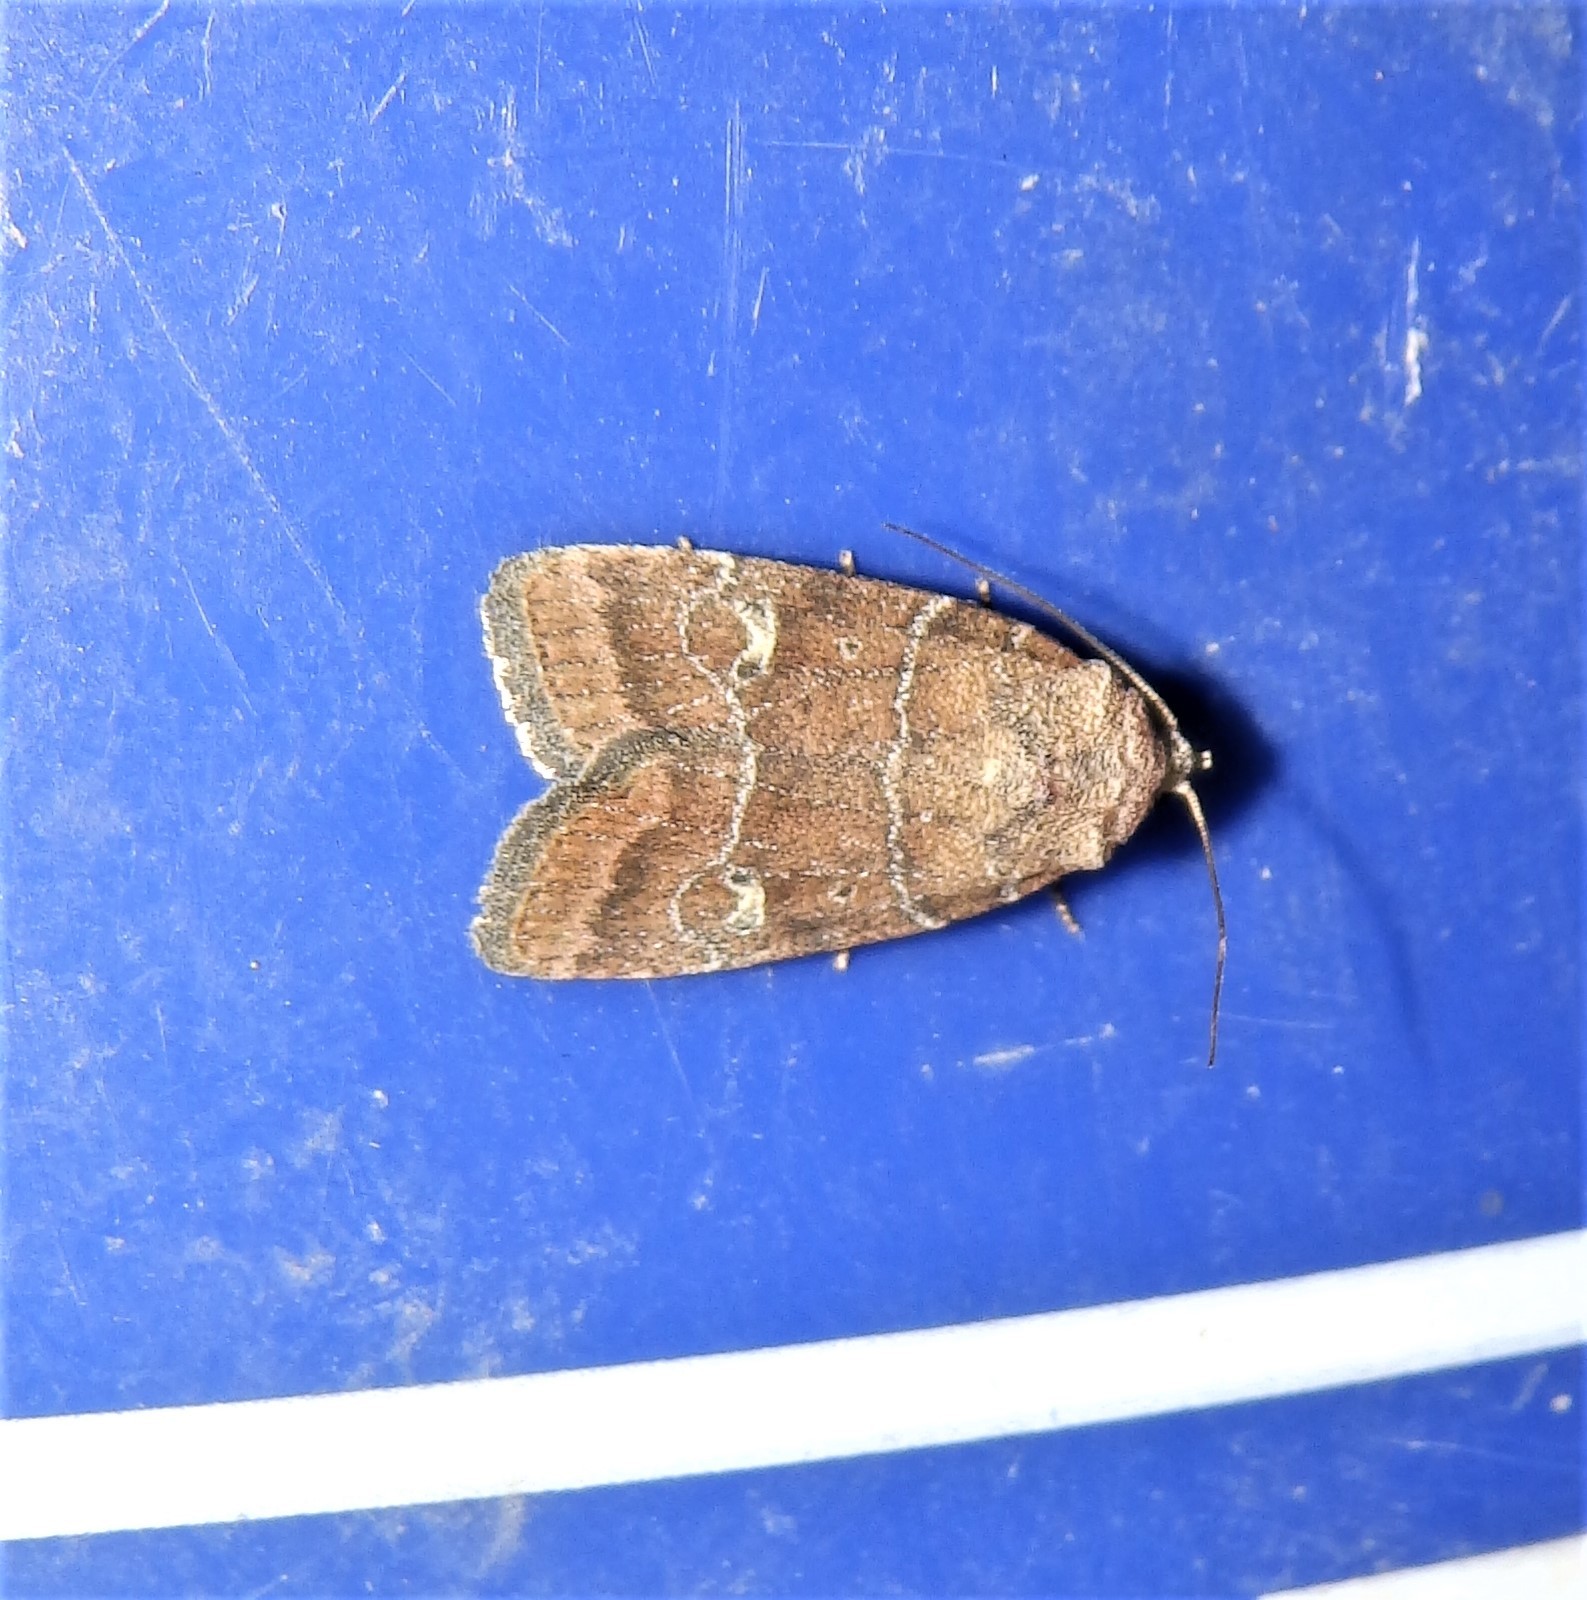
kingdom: Animalia
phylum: Arthropoda
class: Insecta
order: Lepidoptera
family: Noctuidae
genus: Elaphria
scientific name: Elaphria grata
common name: Grateful midget moth
